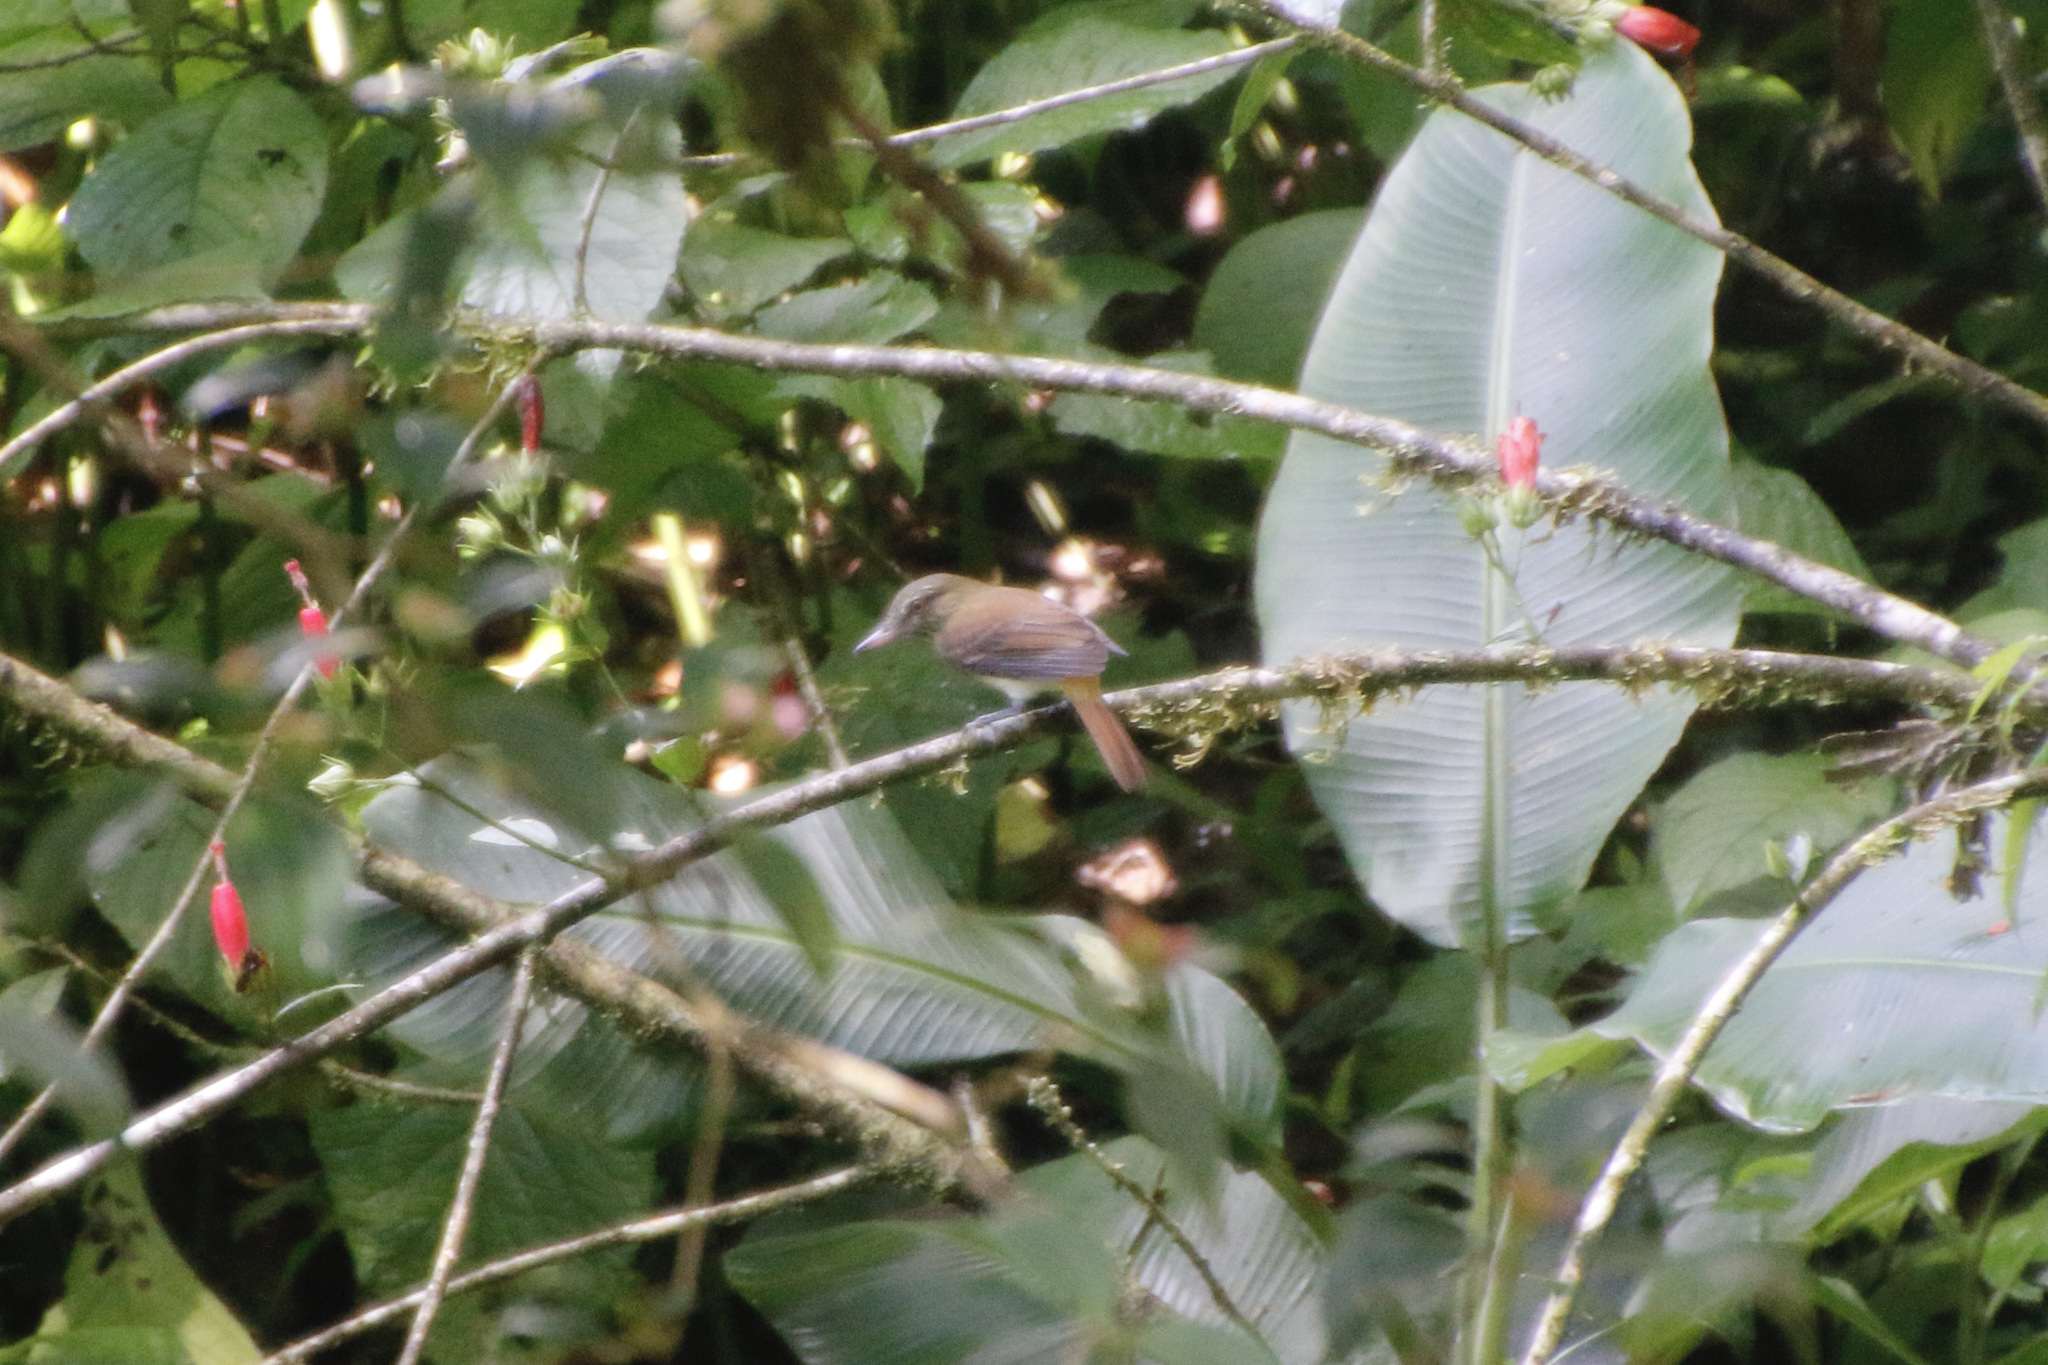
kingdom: Animalia
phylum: Chordata
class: Aves
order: Passeriformes
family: Tyrannidae
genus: Attila
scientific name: Attila spadiceus
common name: Bright-rumped attila
